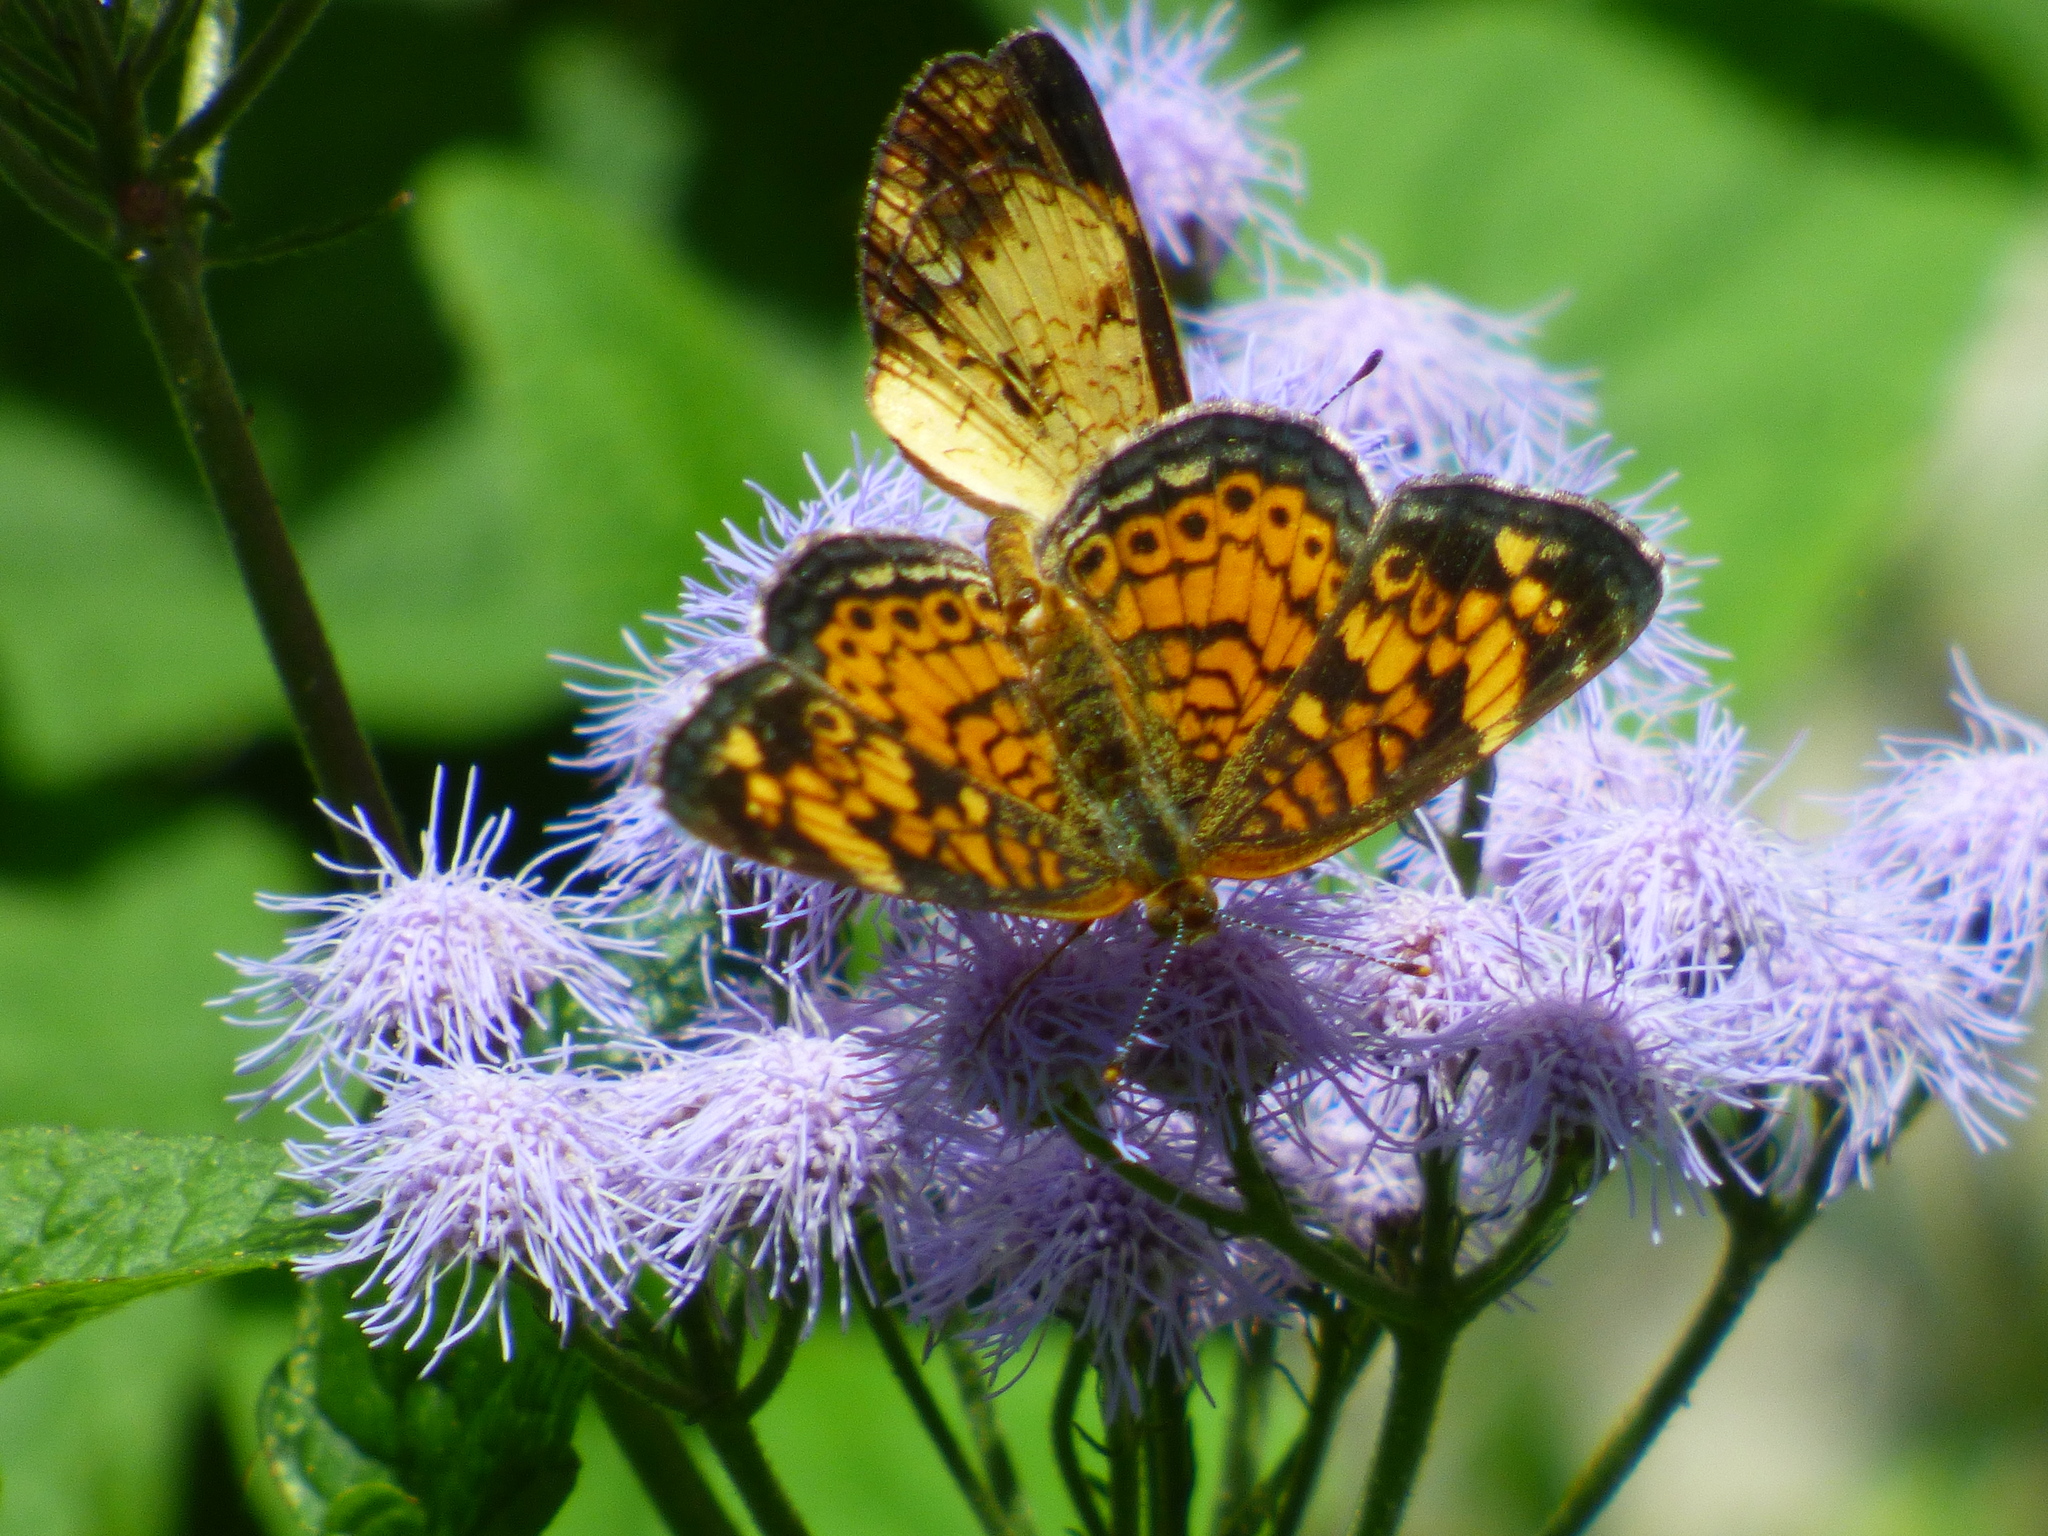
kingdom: Animalia
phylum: Arthropoda
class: Insecta
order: Lepidoptera
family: Nymphalidae
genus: Phyciodes
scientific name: Phyciodes tharos
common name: Pearl crescent
